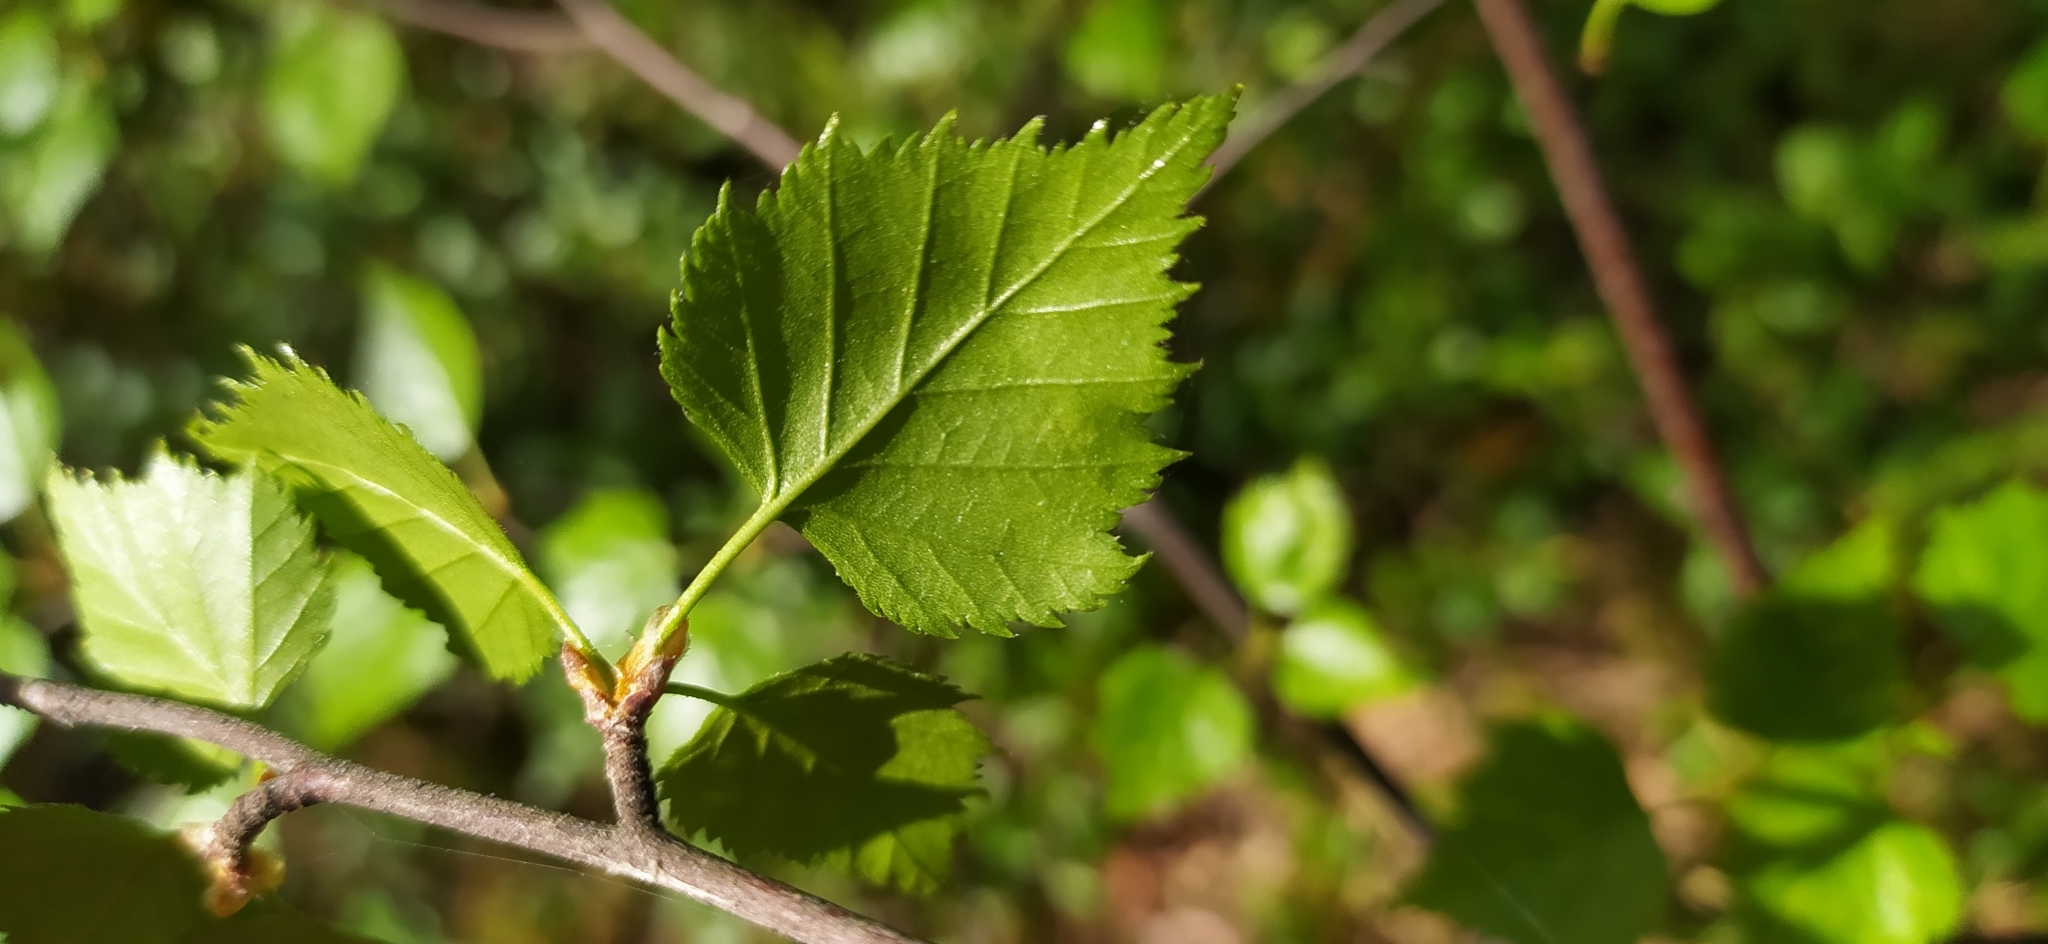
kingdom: Plantae
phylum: Tracheophyta
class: Magnoliopsida
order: Fagales
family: Betulaceae
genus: Betula
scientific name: Betula pendula
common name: Silver birch
